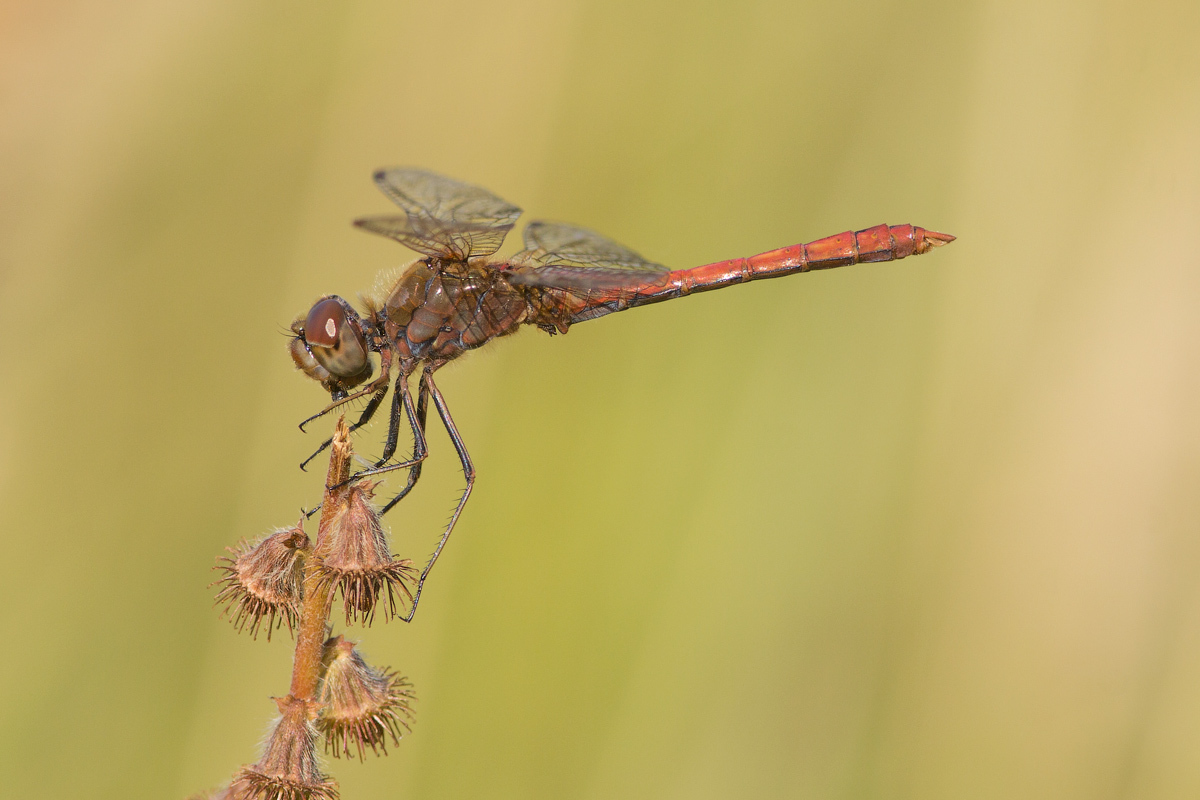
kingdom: Animalia
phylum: Arthropoda
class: Insecta
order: Odonata
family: Libellulidae
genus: Sympetrum
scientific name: Sympetrum vulgatum
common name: Vagrant darter
